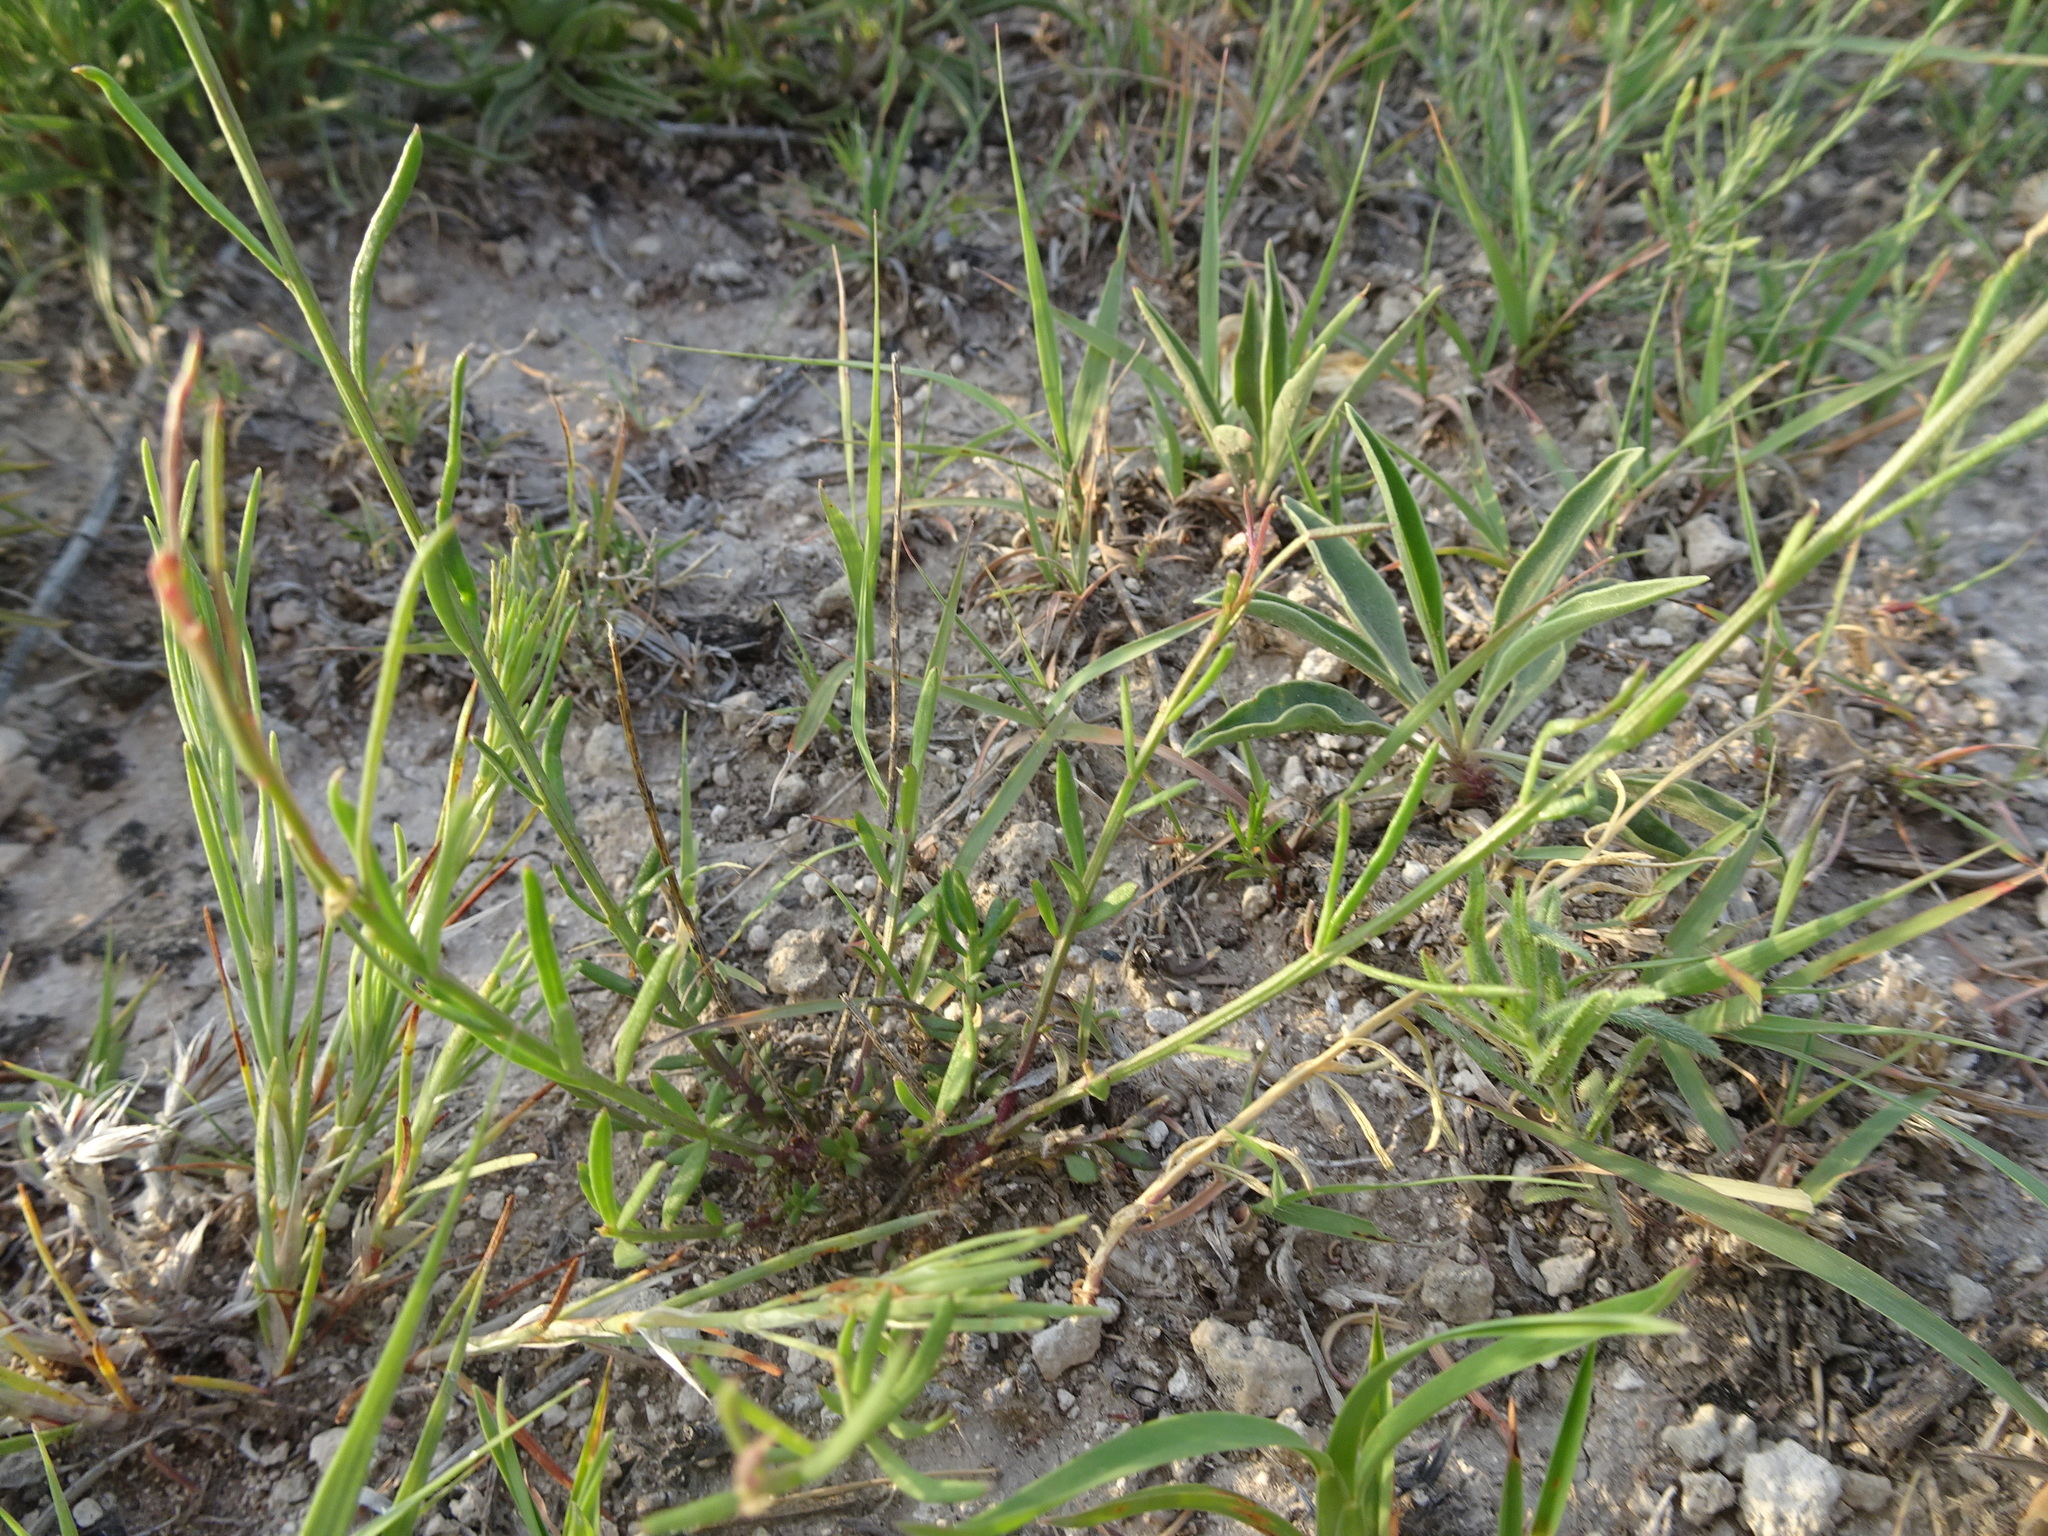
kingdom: Plantae
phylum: Tracheophyta
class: Magnoliopsida
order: Fabales
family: Polygalaceae
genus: Polygala
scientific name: Polygala alba
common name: White milkwort
